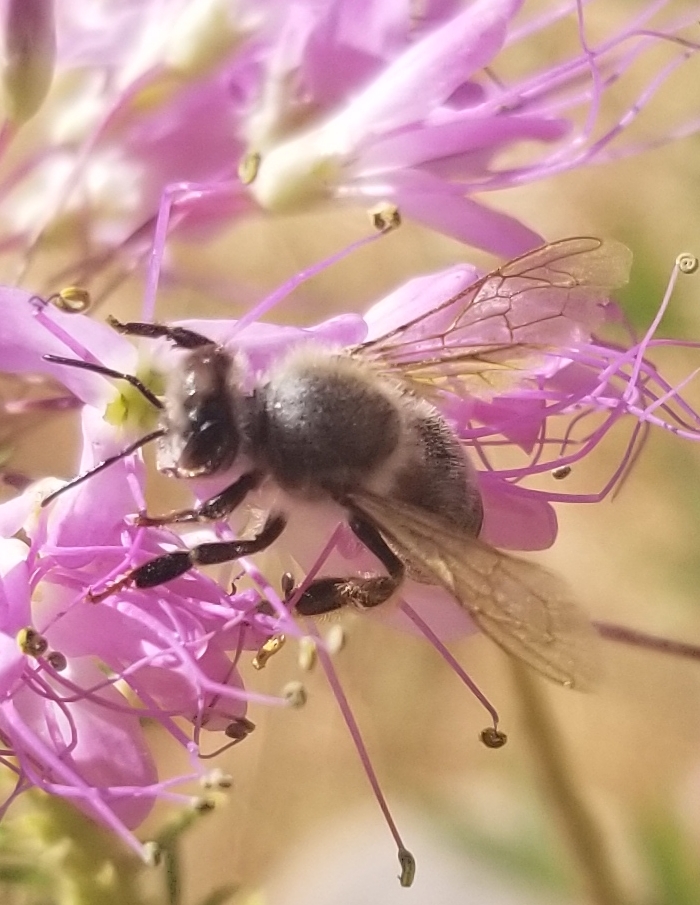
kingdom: Animalia
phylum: Arthropoda
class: Insecta
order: Hymenoptera
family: Apidae
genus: Apis
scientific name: Apis mellifera
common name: Honey bee
